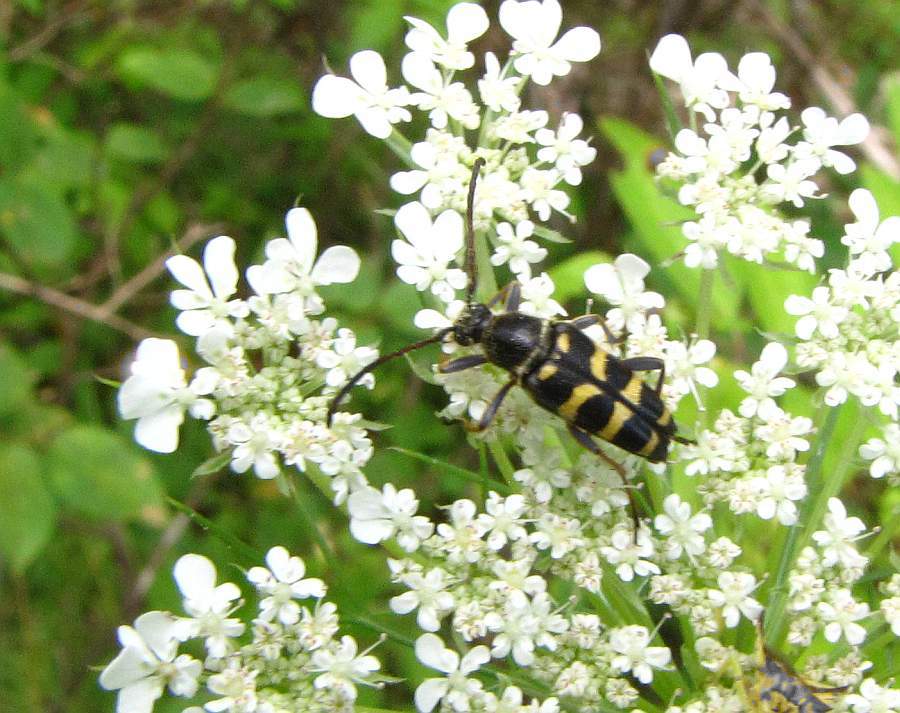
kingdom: Animalia
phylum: Arthropoda
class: Insecta
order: Coleoptera
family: Cerambycidae
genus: Typocerus
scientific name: Typocerus sparsus
